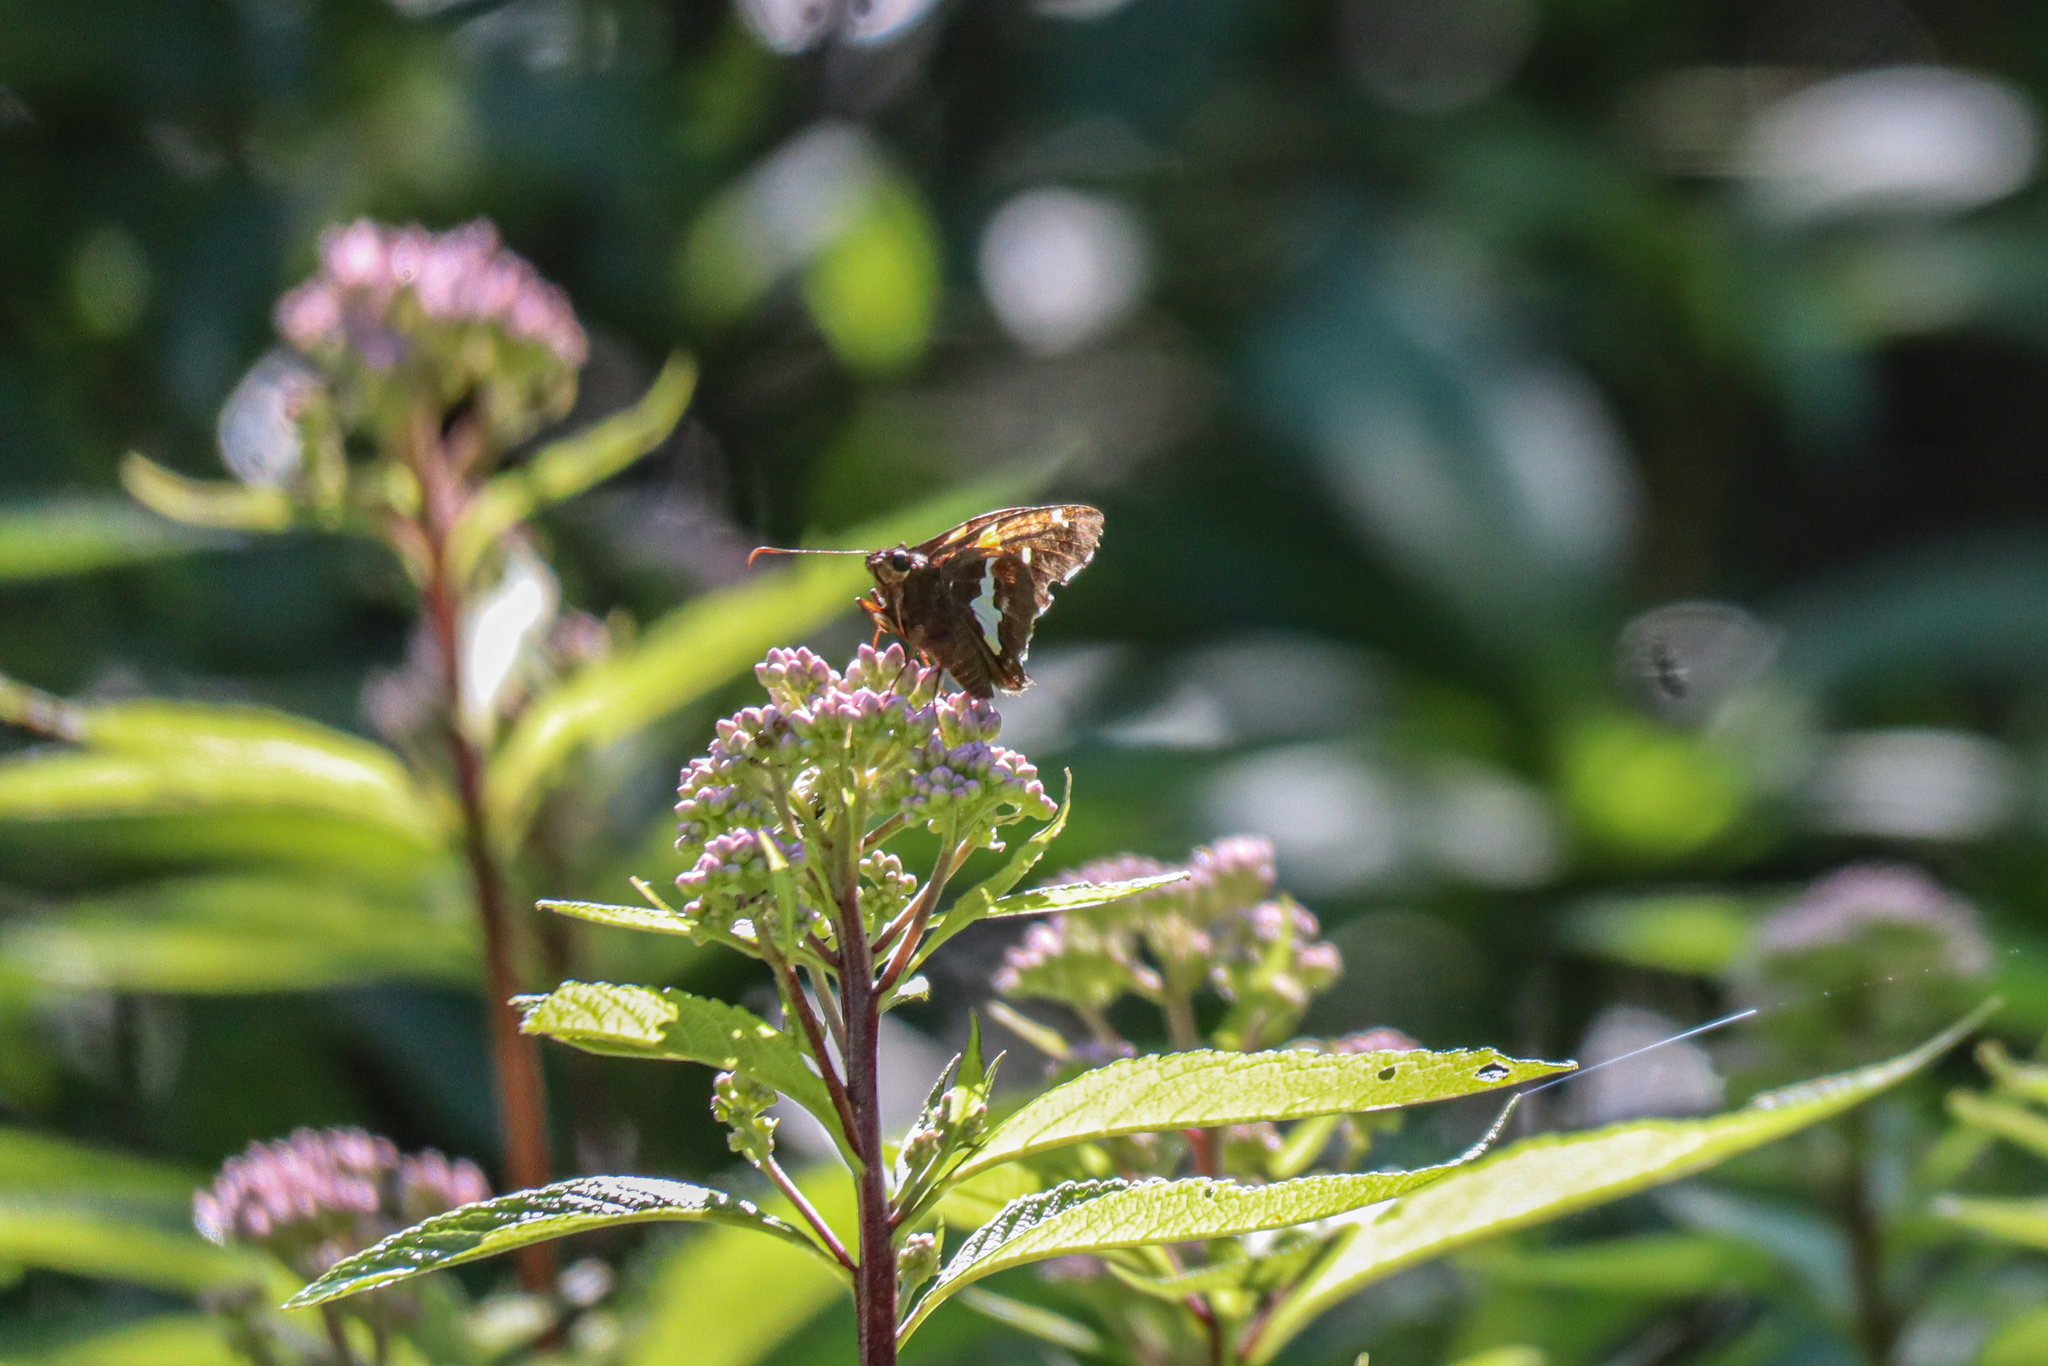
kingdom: Animalia
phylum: Arthropoda
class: Insecta
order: Lepidoptera
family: Hesperiidae
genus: Epargyreus
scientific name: Epargyreus clarus
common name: Silver-spotted skipper
